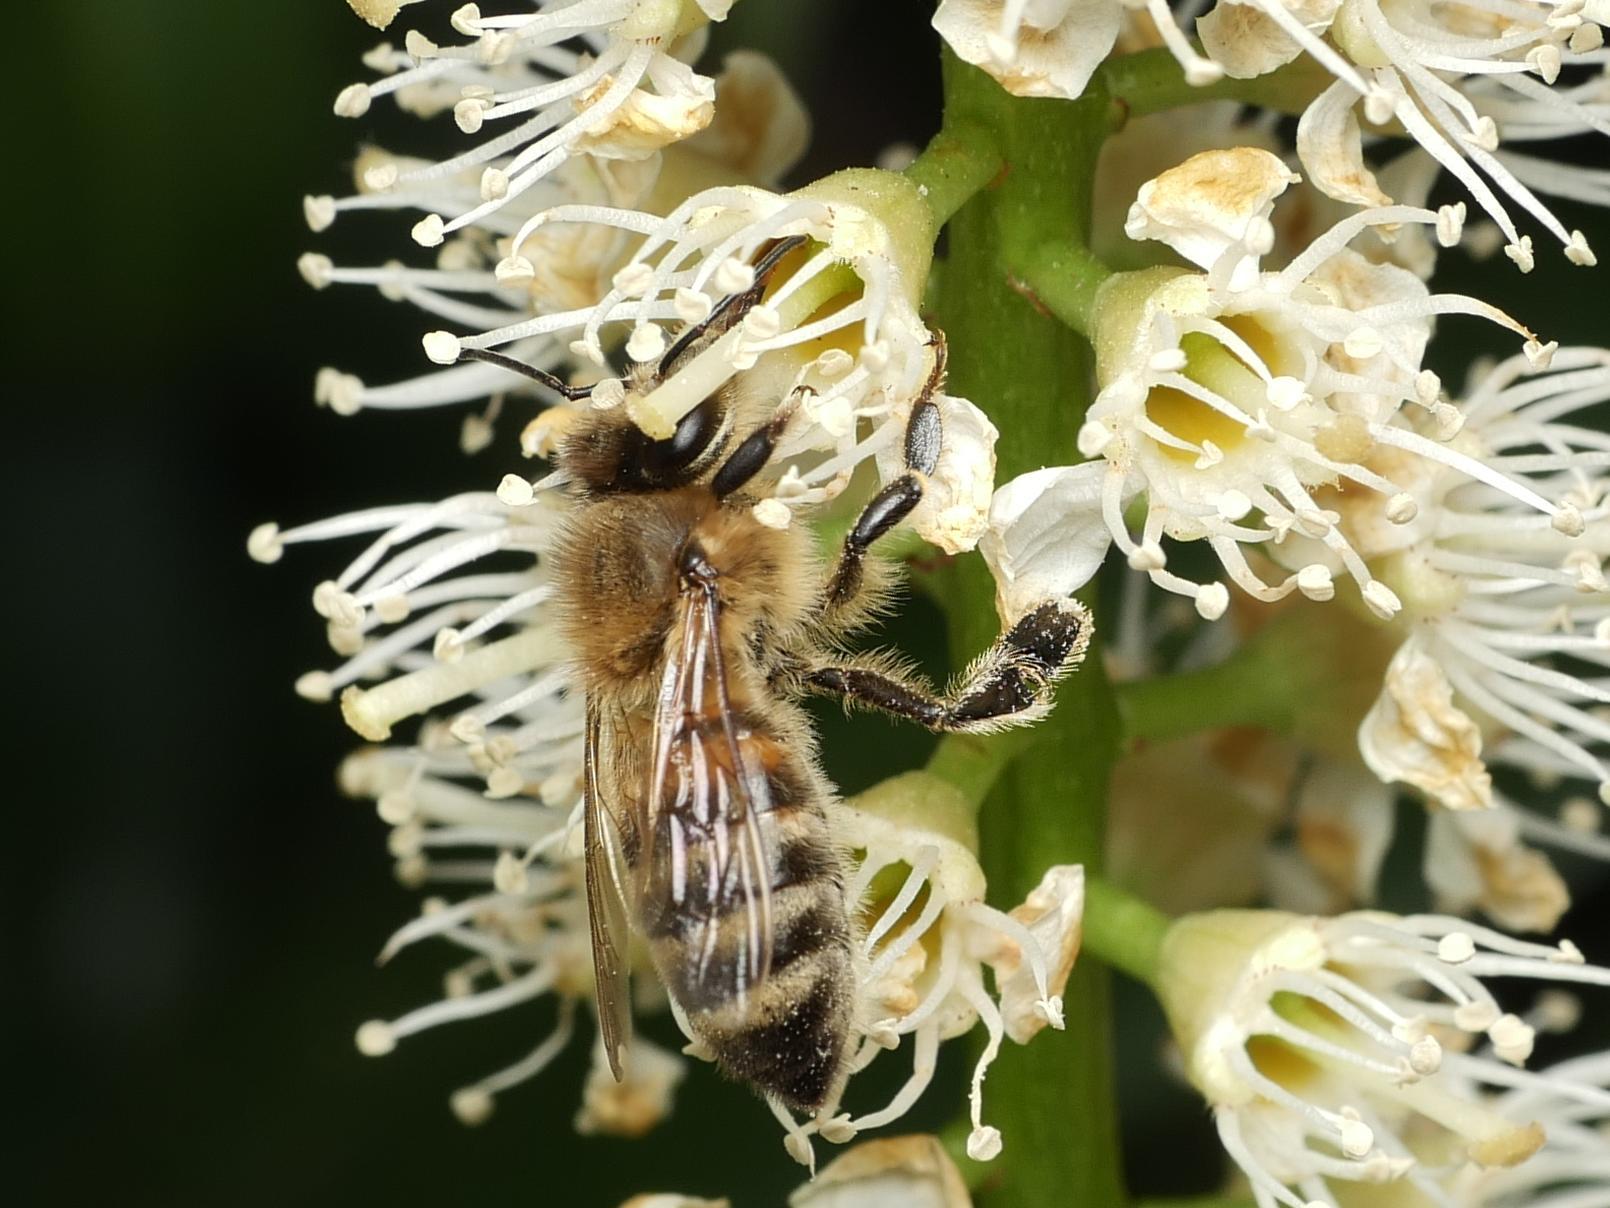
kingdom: Animalia
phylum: Arthropoda
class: Insecta
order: Hymenoptera
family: Apidae
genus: Apis
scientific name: Apis mellifera
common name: Honey bee
